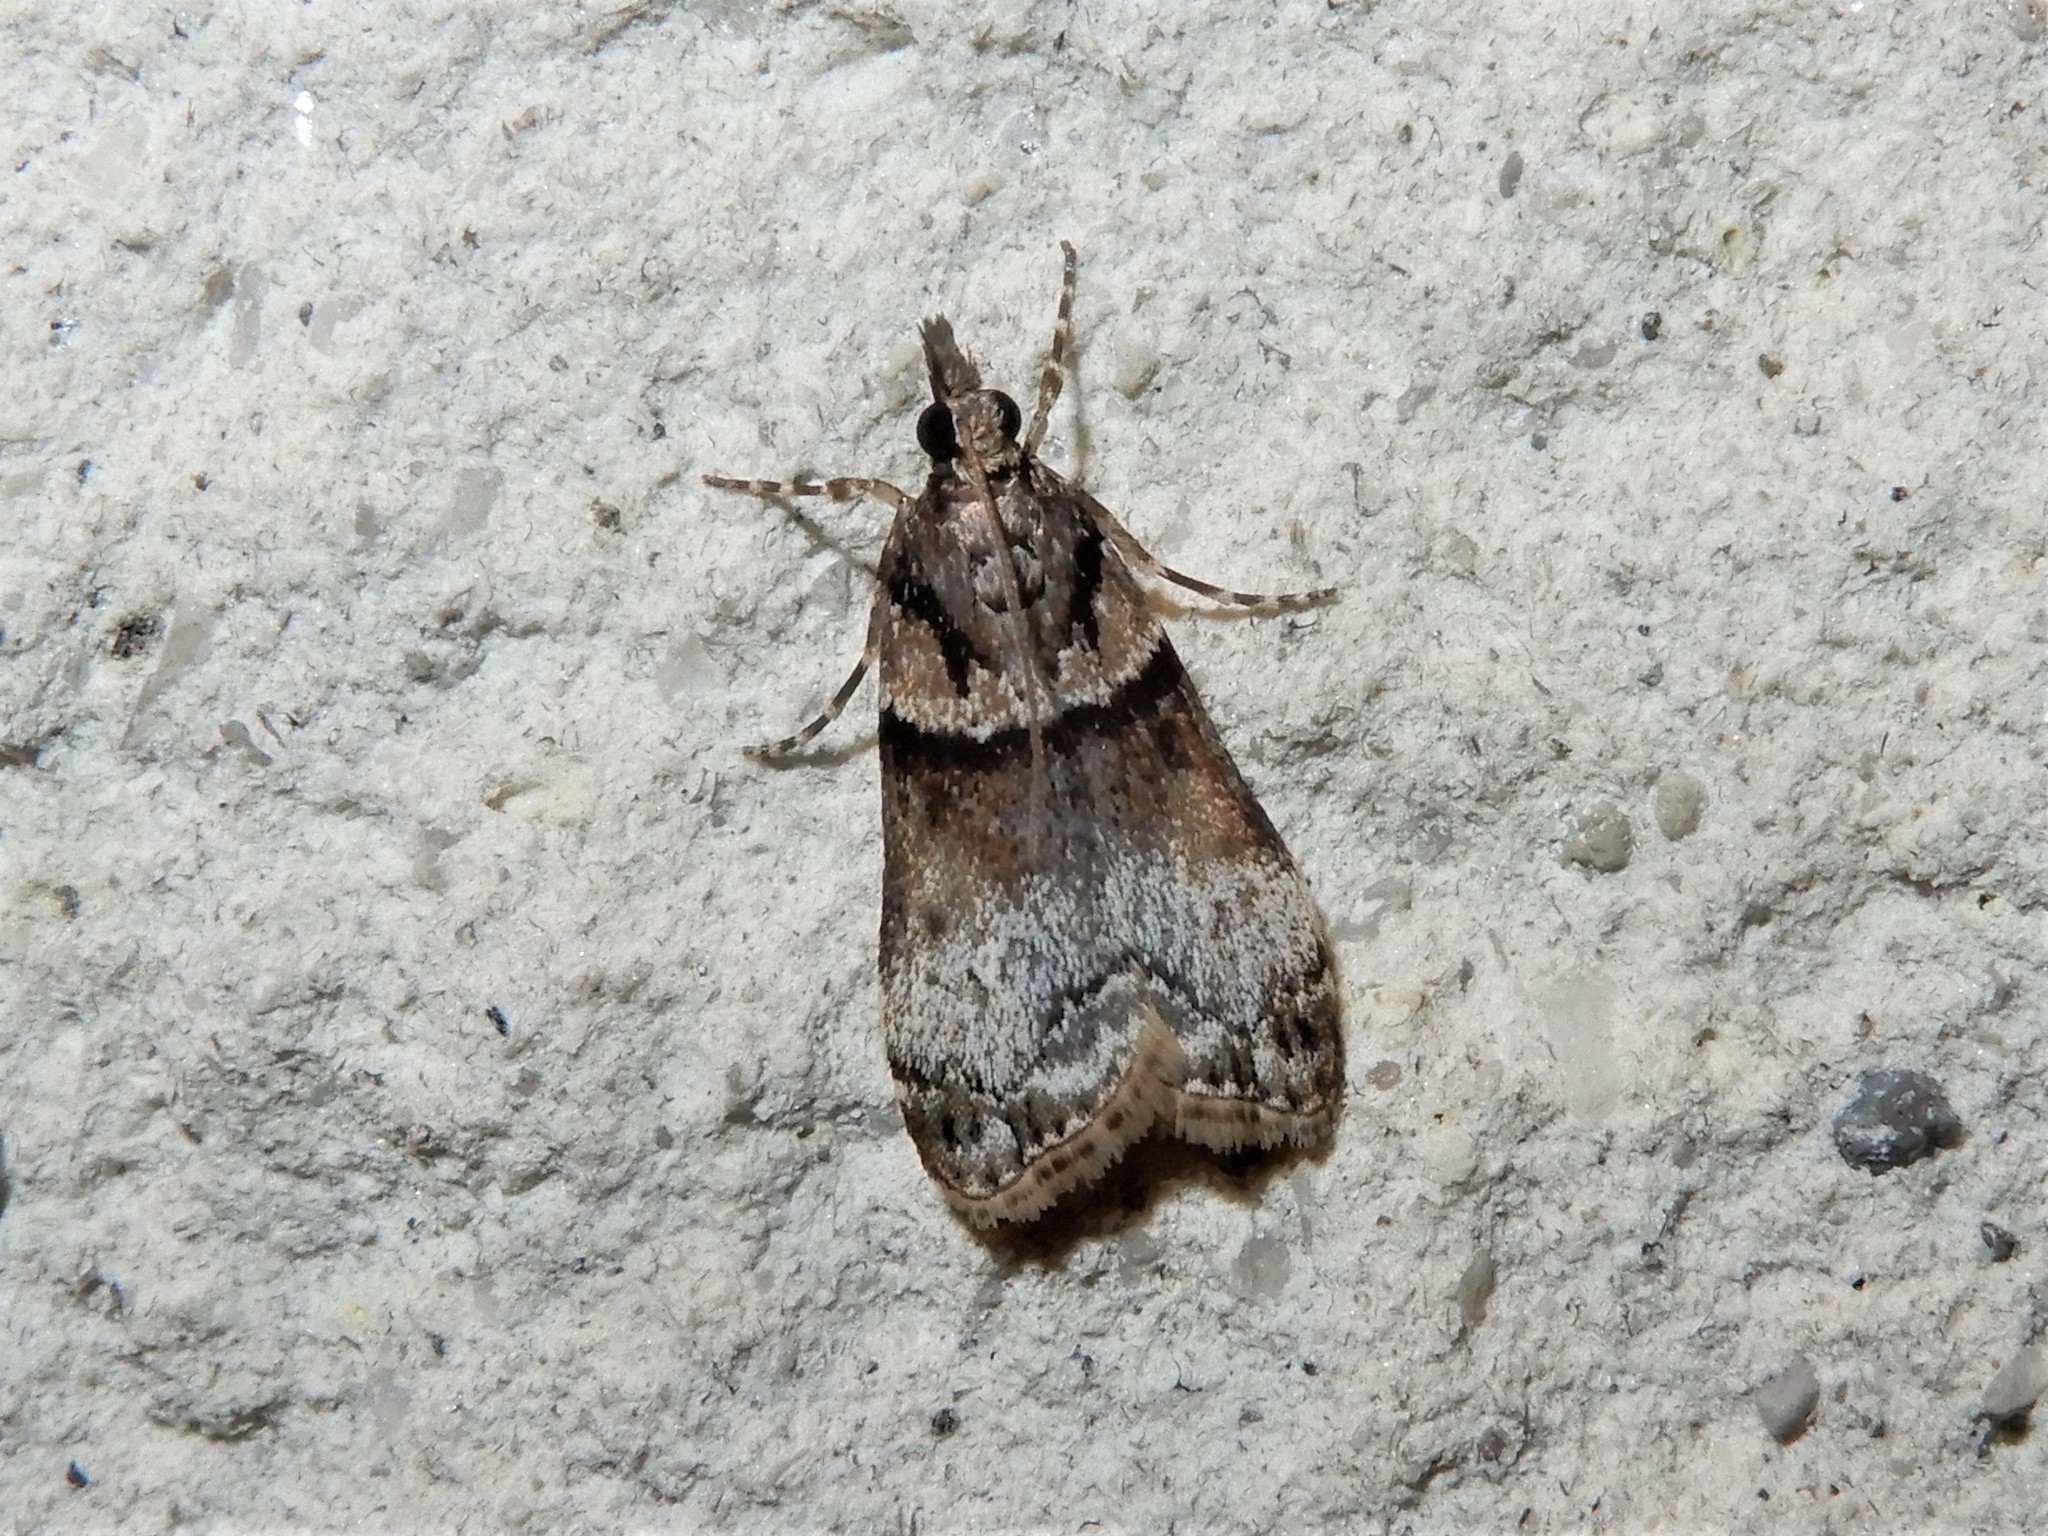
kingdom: Animalia
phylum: Arthropoda
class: Insecta
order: Lepidoptera
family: Crambidae
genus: Eudonia
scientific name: Eudonia colpota
